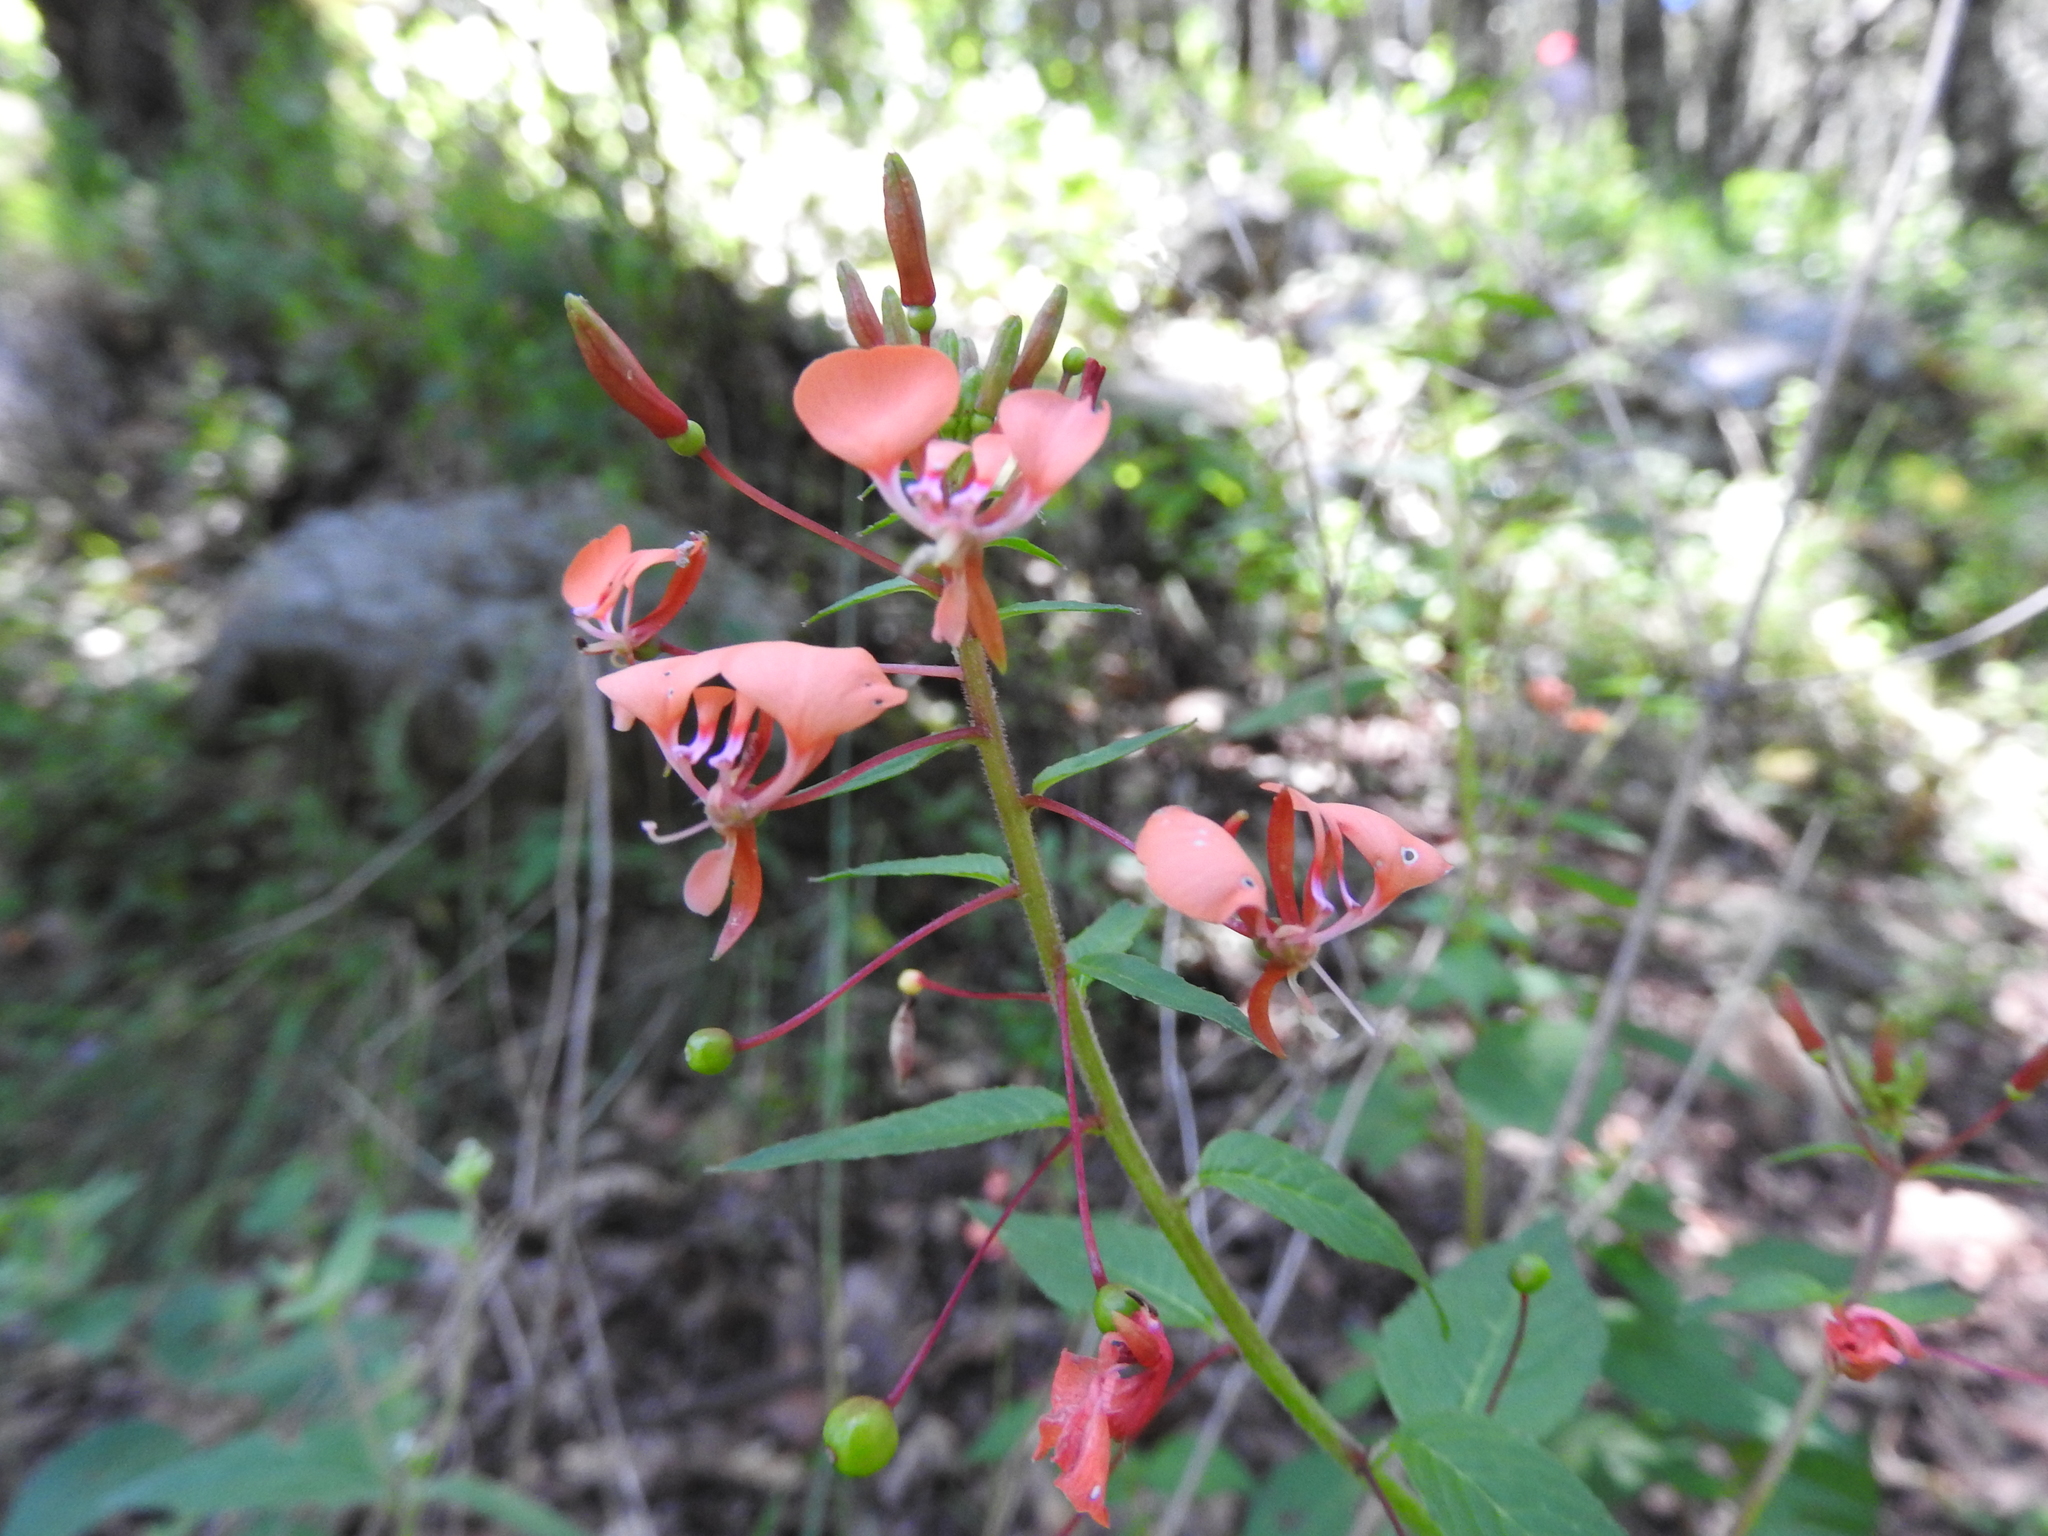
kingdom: Plantae
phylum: Tracheophyta
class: Magnoliopsida
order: Myrtales
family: Onagraceae
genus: Lopezia
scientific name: Lopezia racemosa
